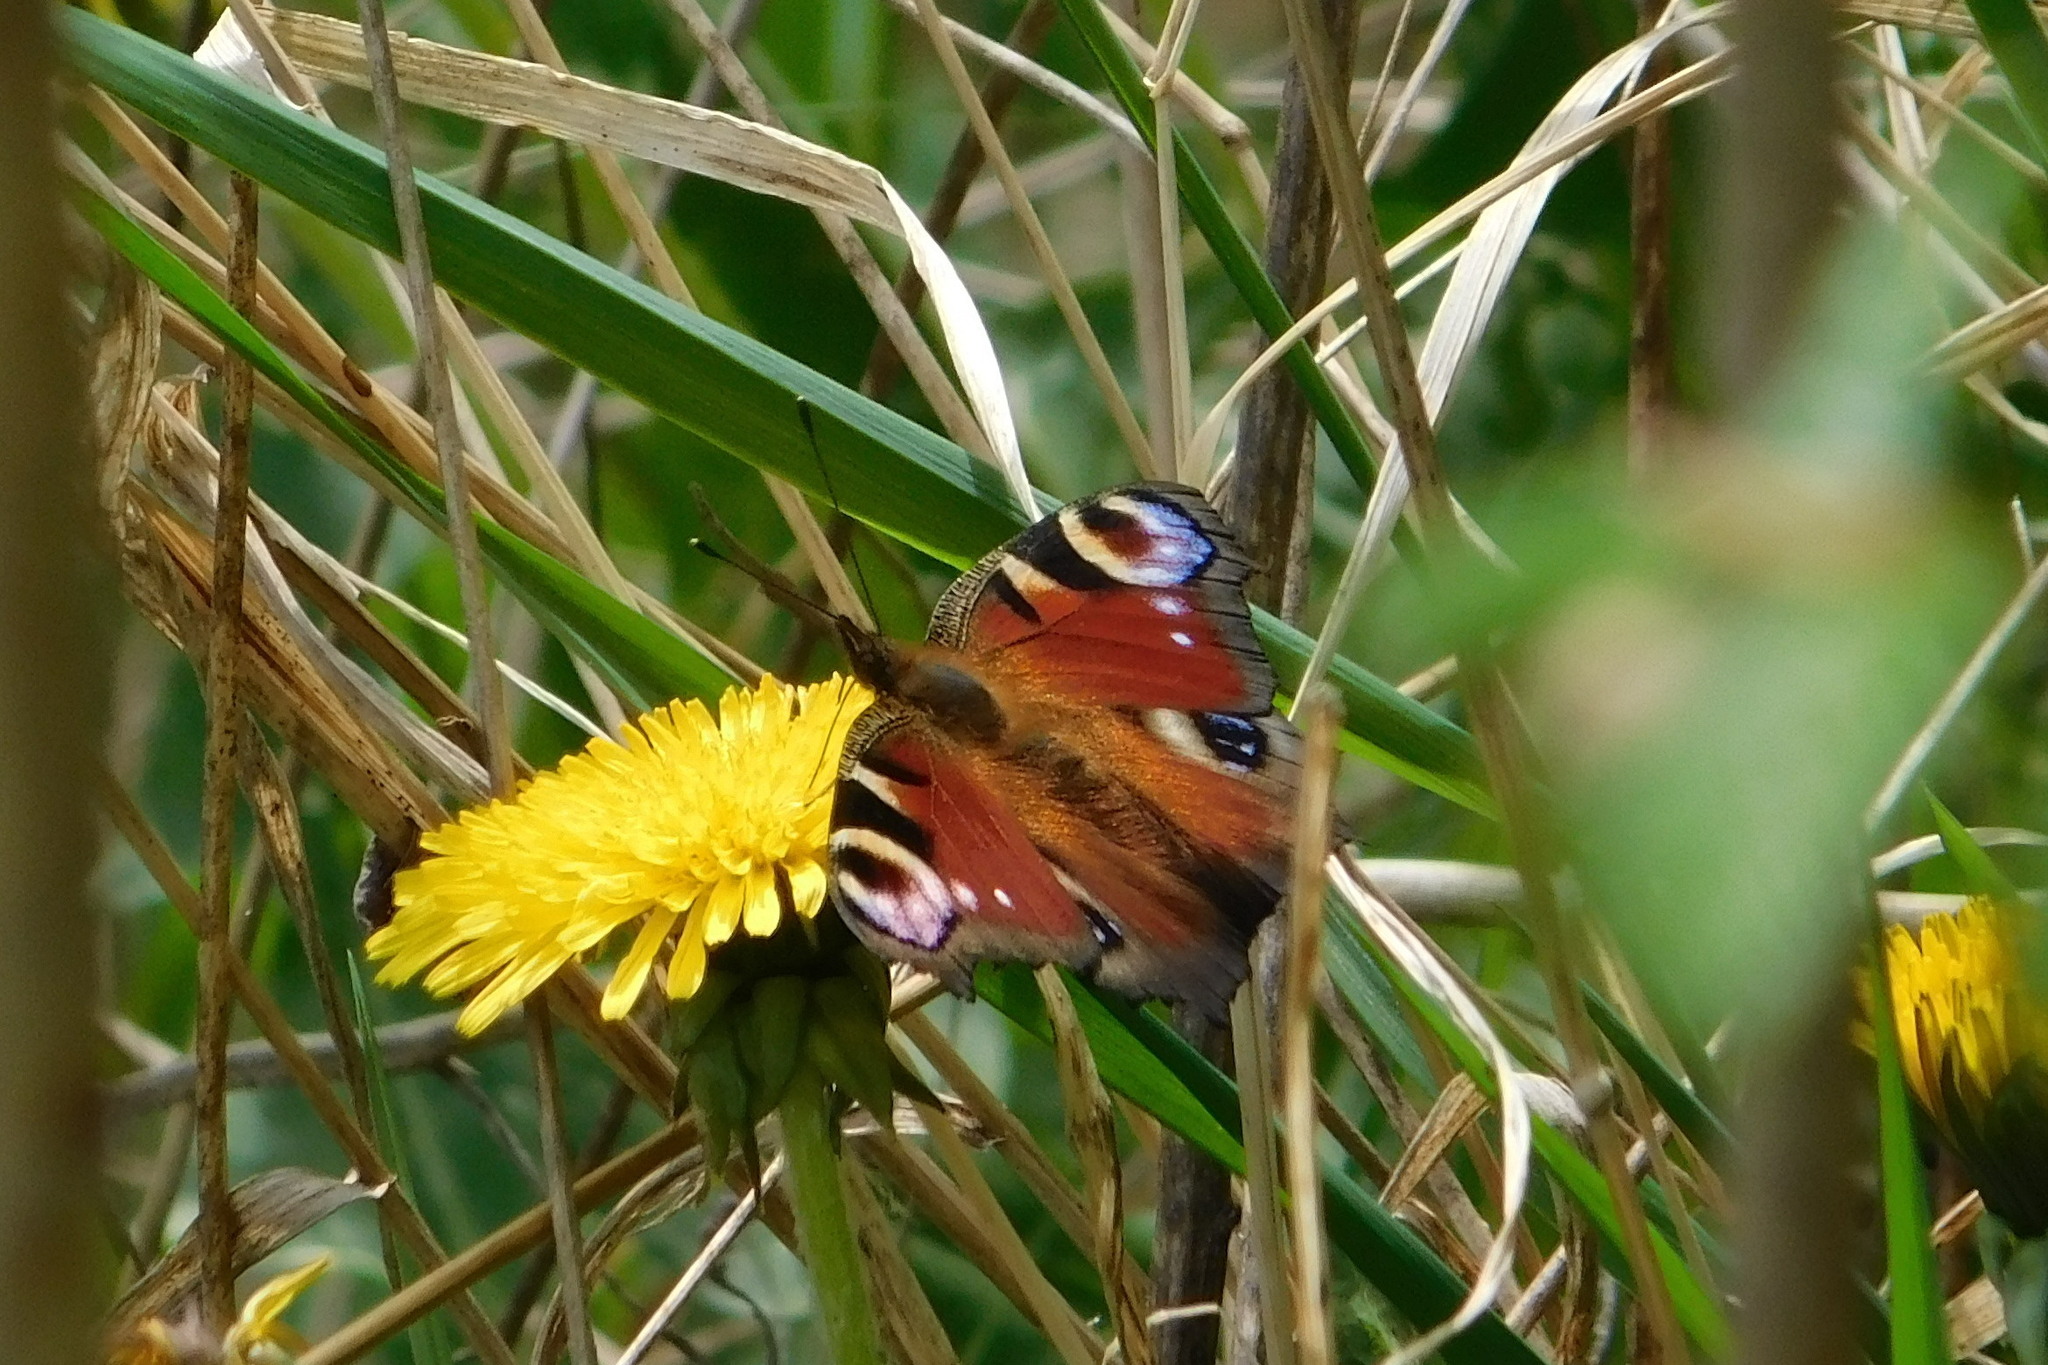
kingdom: Animalia
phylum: Arthropoda
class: Insecta
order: Lepidoptera
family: Nymphalidae
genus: Aglais
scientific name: Aglais io
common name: Peacock
